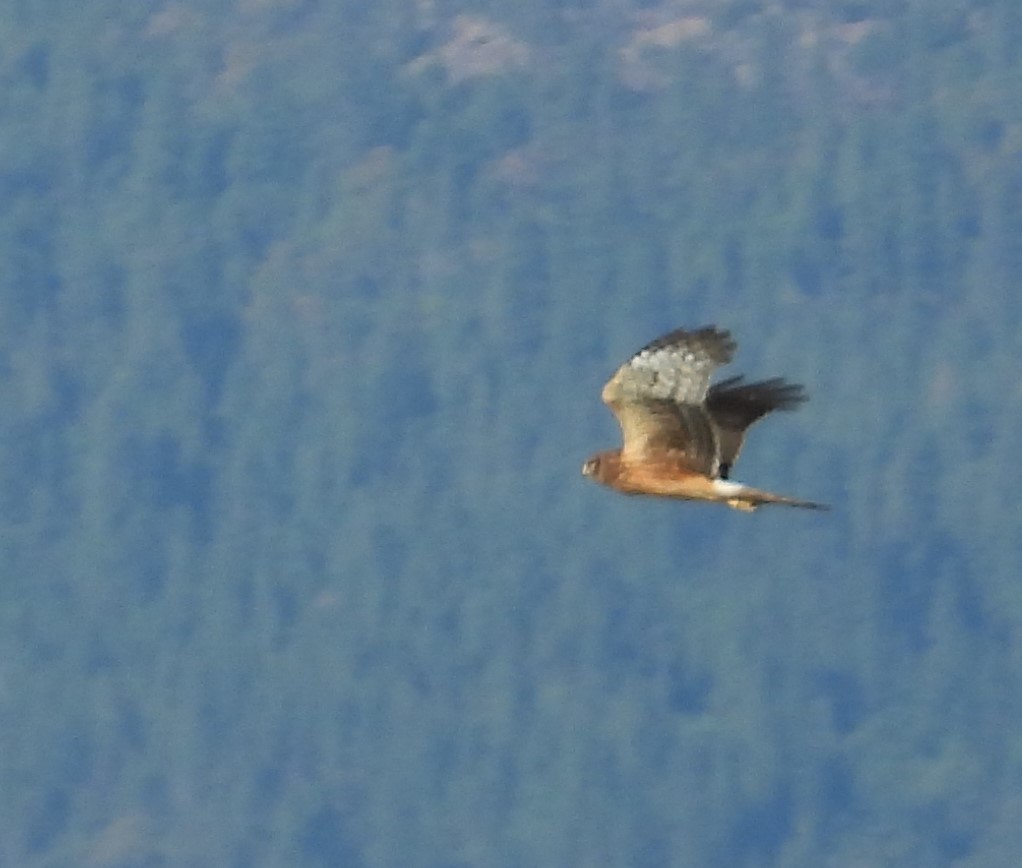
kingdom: Animalia
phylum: Chordata
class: Aves
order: Accipitriformes
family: Accipitridae
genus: Circus
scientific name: Circus cyaneus
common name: Hen harrier
